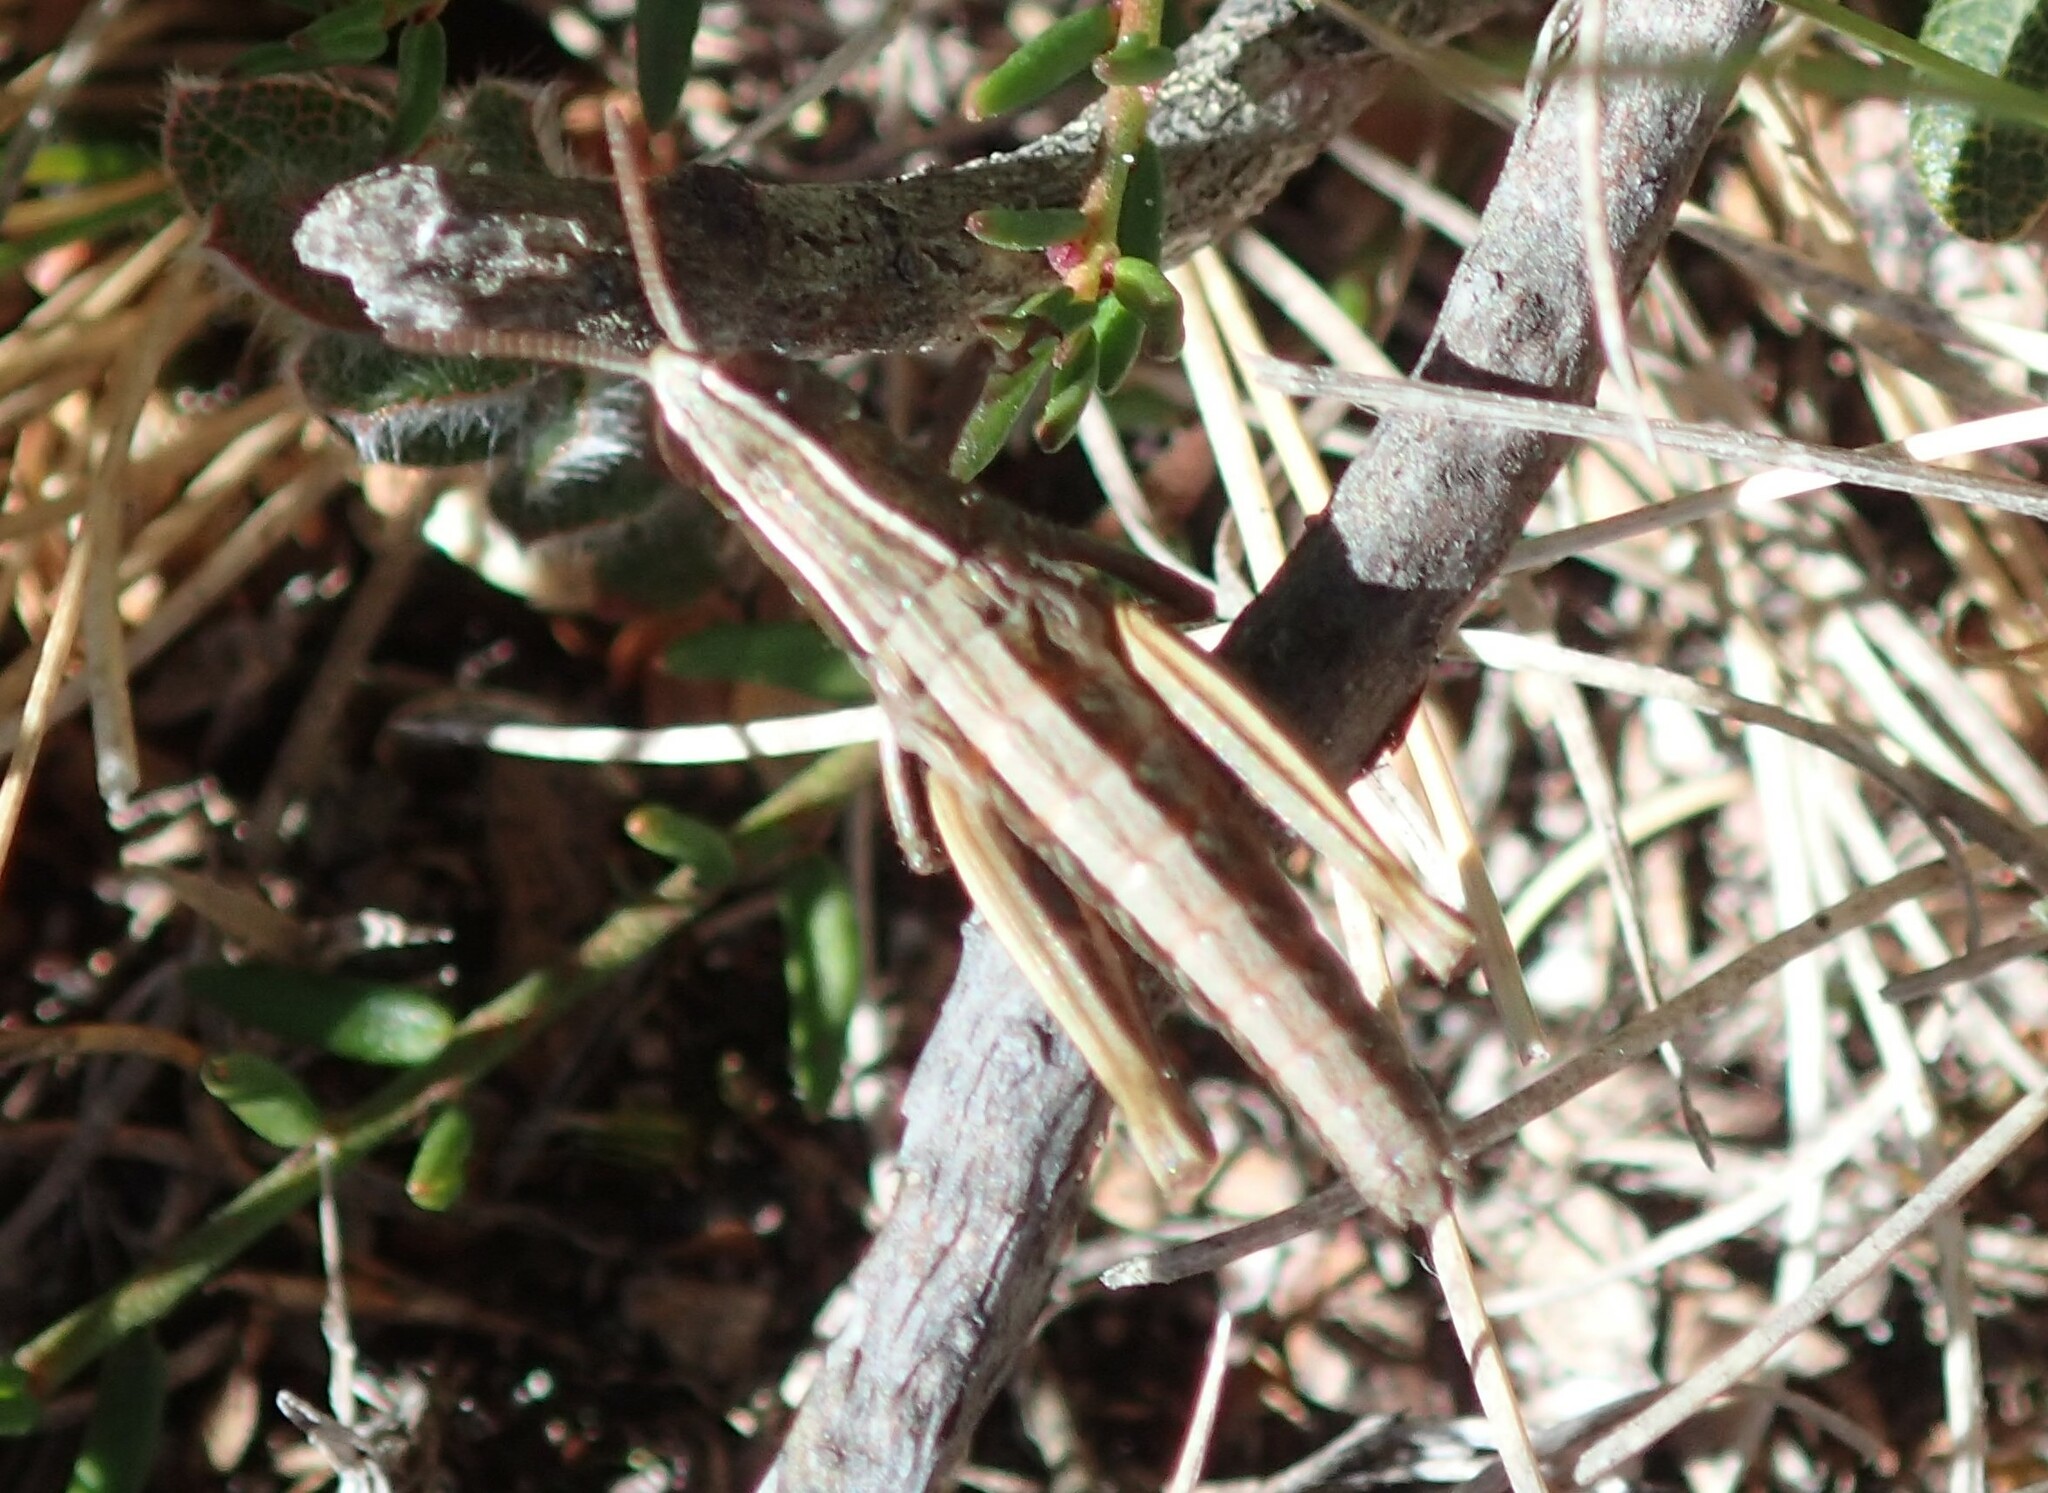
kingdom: Animalia
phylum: Arthropoda
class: Insecta
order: Orthoptera
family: Acrididae
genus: Russalpia
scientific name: Russalpia albertisi
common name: Tassie hopper
